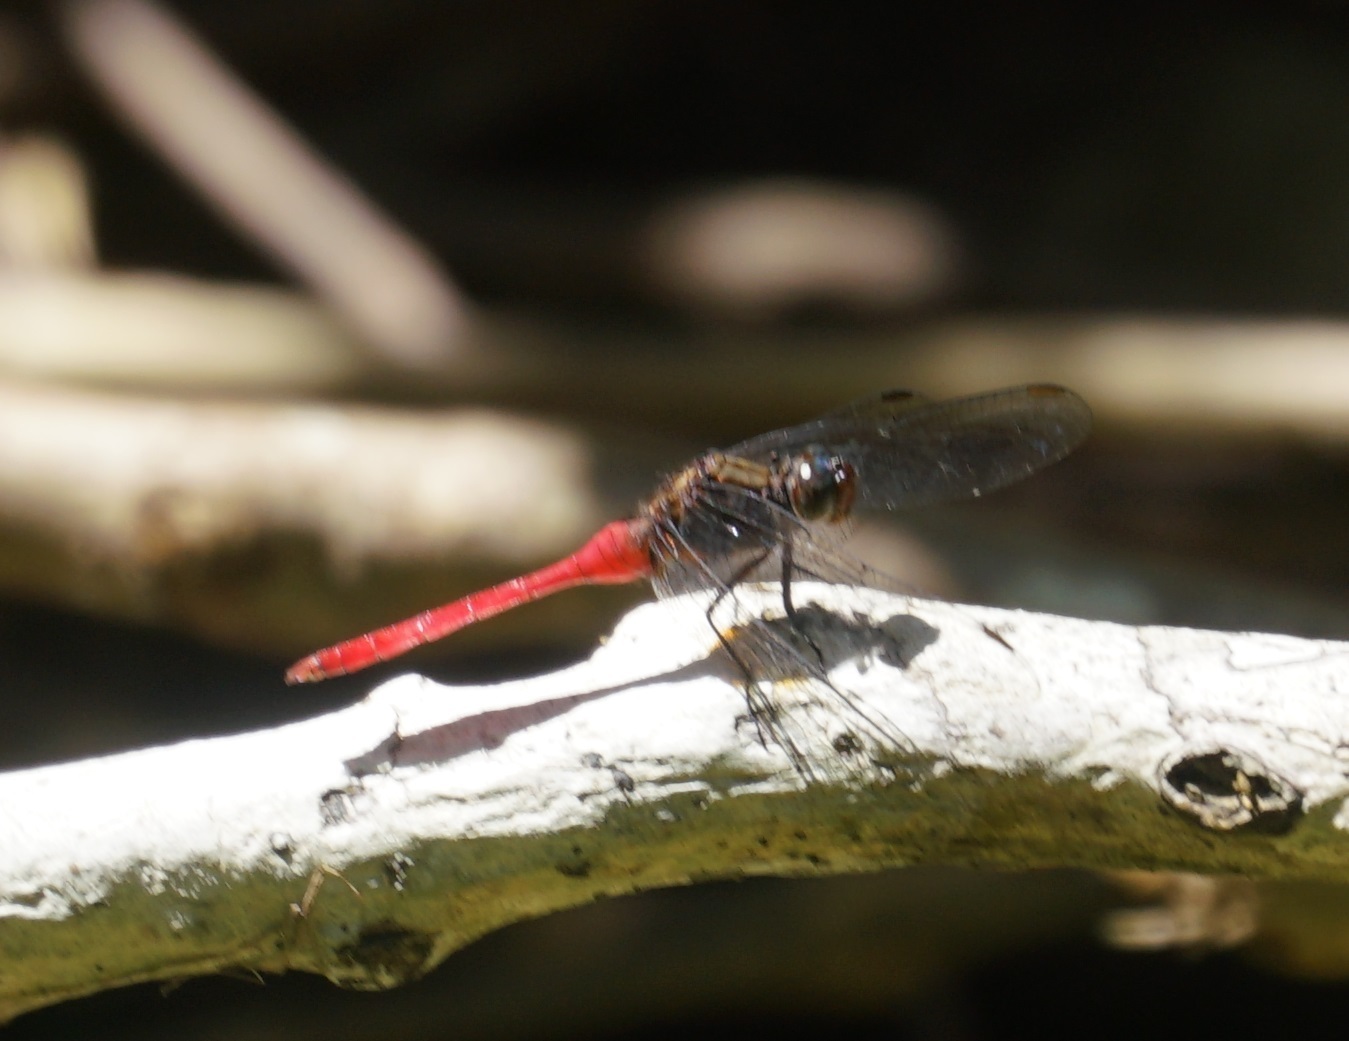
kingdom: Animalia
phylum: Arthropoda
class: Insecta
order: Odonata
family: Libellulidae
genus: Orthetrum
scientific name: Orthetrum villosovittatum
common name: Firery skimmer
